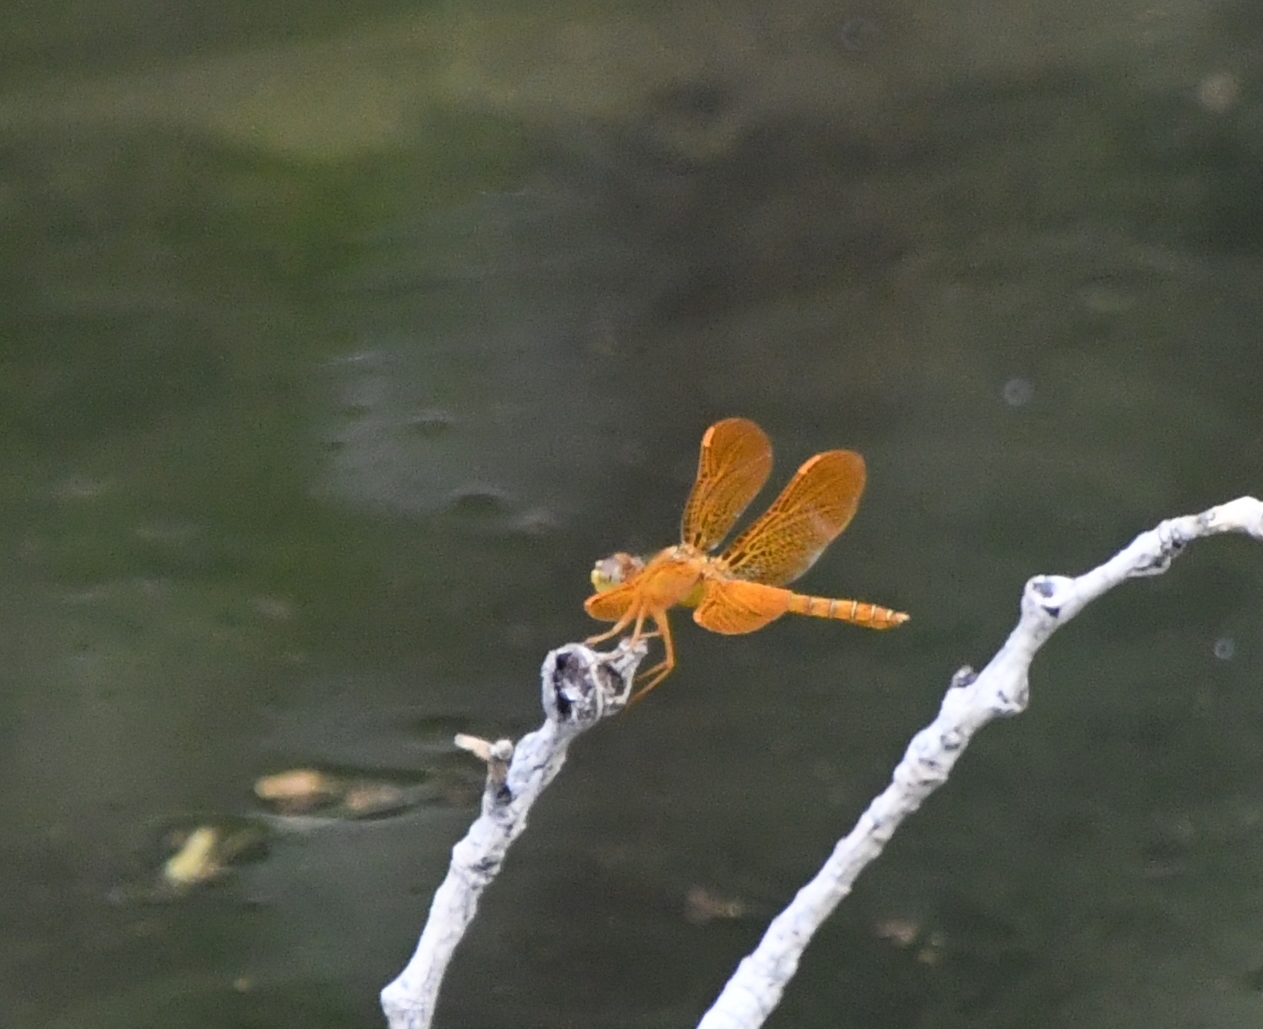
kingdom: Animalia
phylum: Arthropoda
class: Insecta
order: Odonata
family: Libellulidae
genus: Perithemis
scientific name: Perithemis intensa
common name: Mexican amberwing
